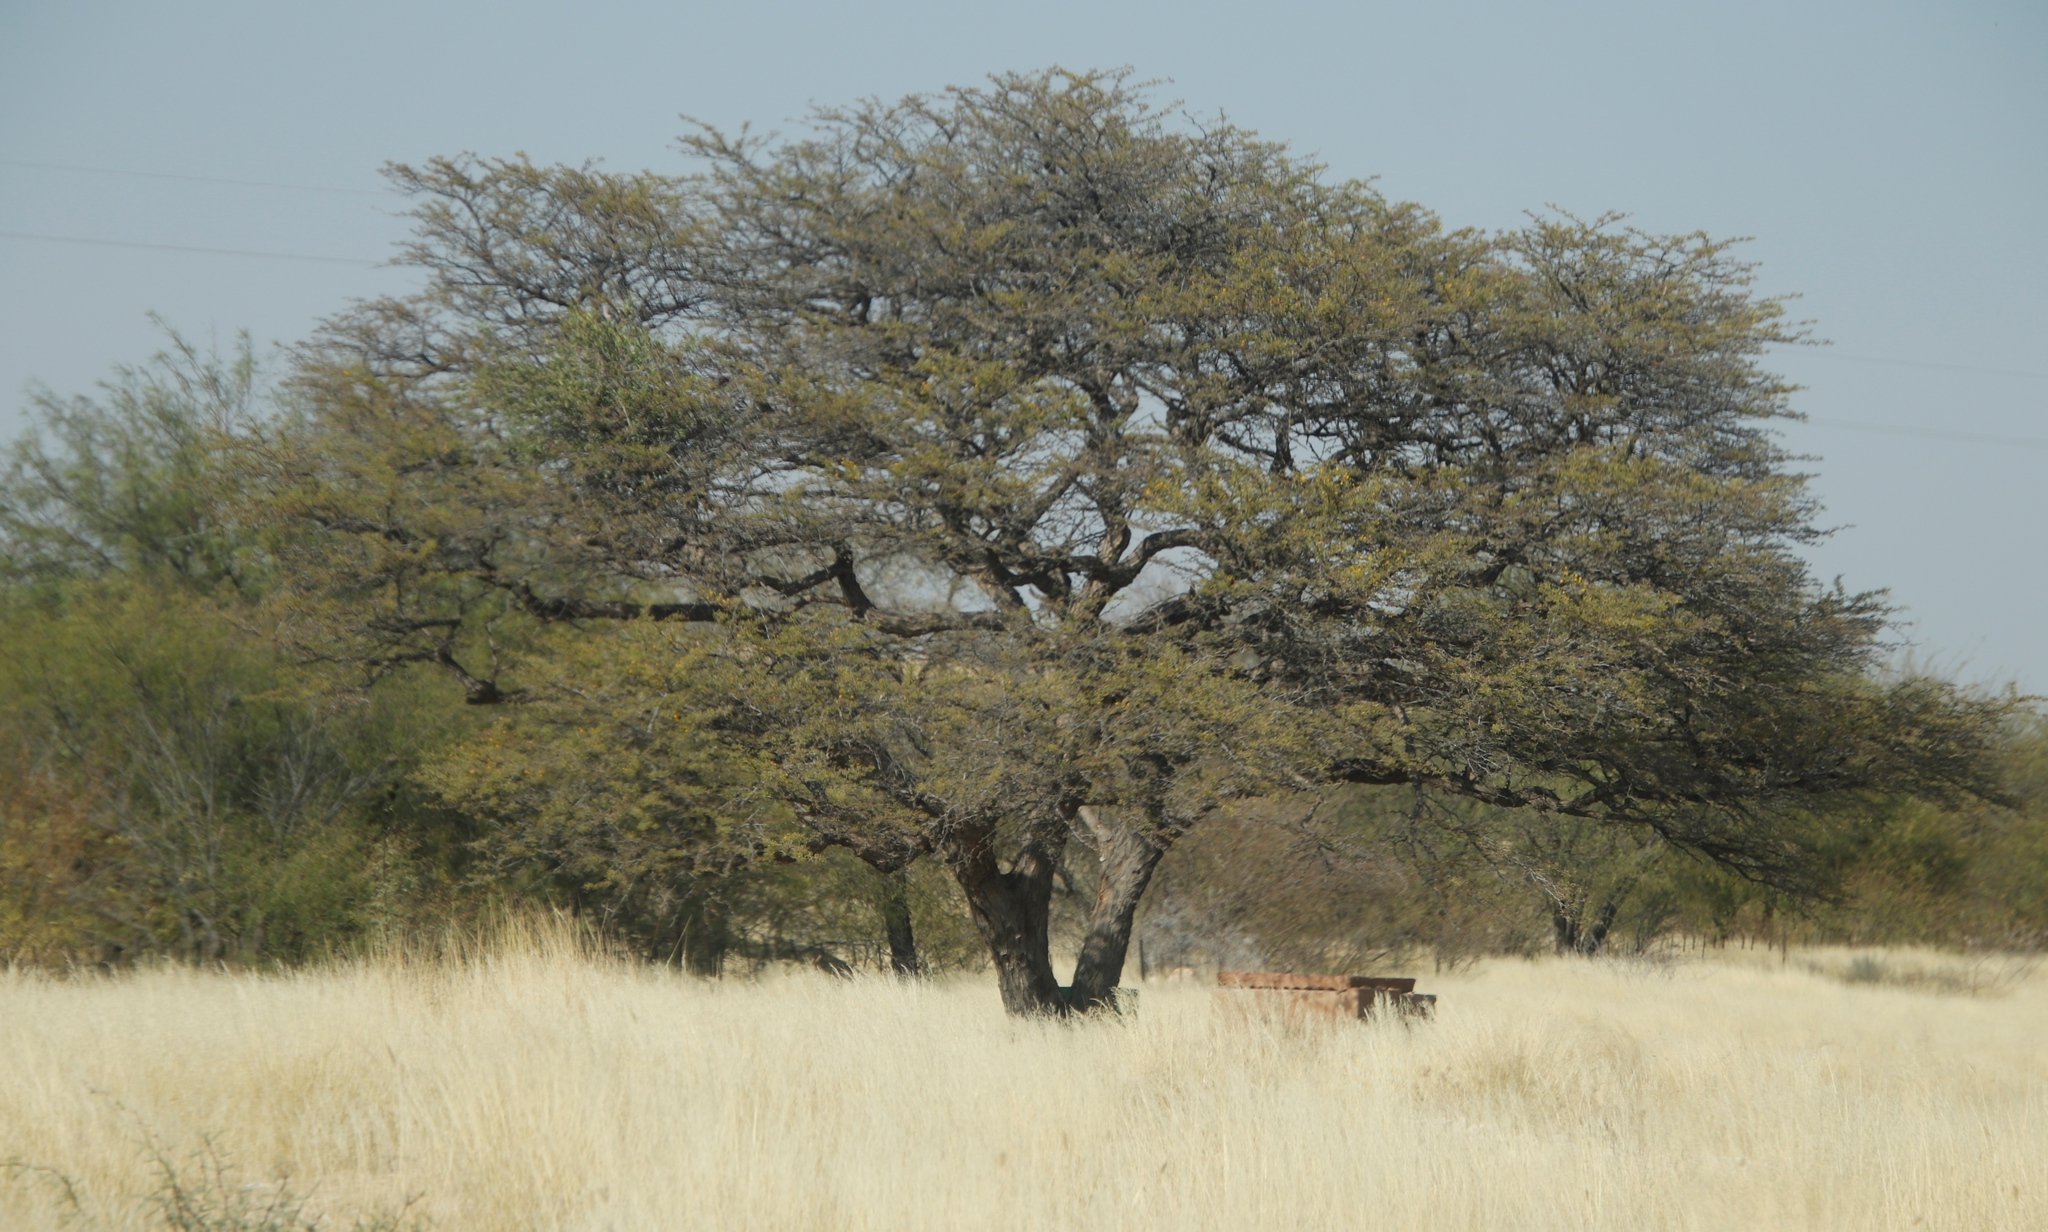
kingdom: Plantae
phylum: Tracheophyta
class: Magnoliopsida
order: Fabales
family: Fabaceae
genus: Vachellia
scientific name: Vachellia erioloba
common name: Camel thorn
